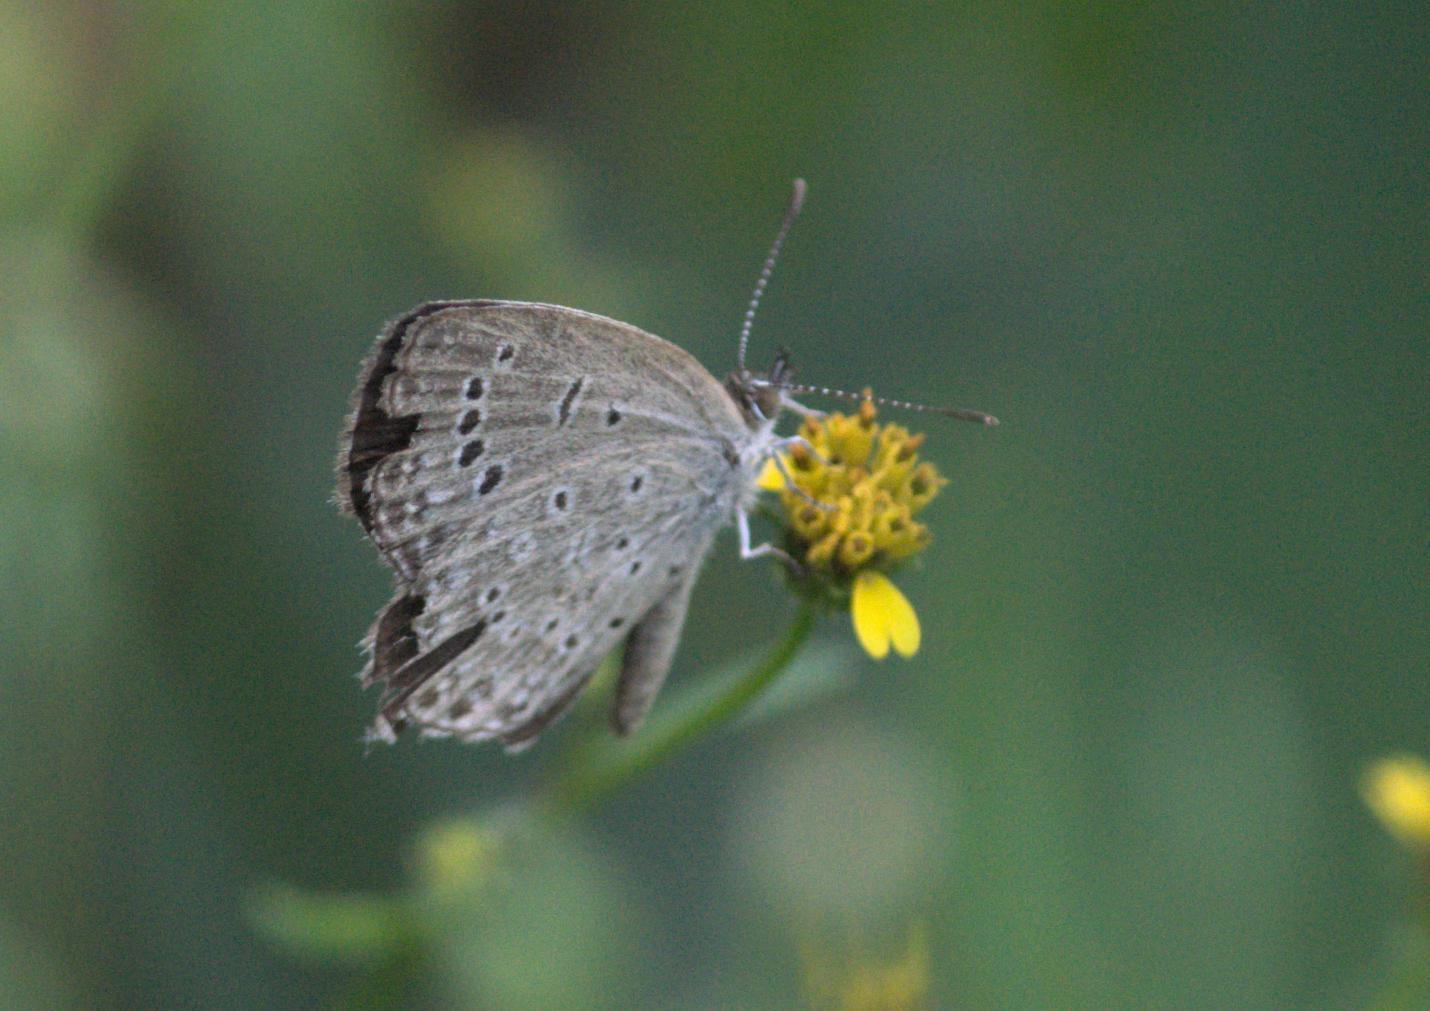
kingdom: Animalia
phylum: Arthropoda
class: Insecta
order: Lepidoptera
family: Lycaenidae
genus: Pseudozizeeria
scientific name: Pseudozizeeria maha
